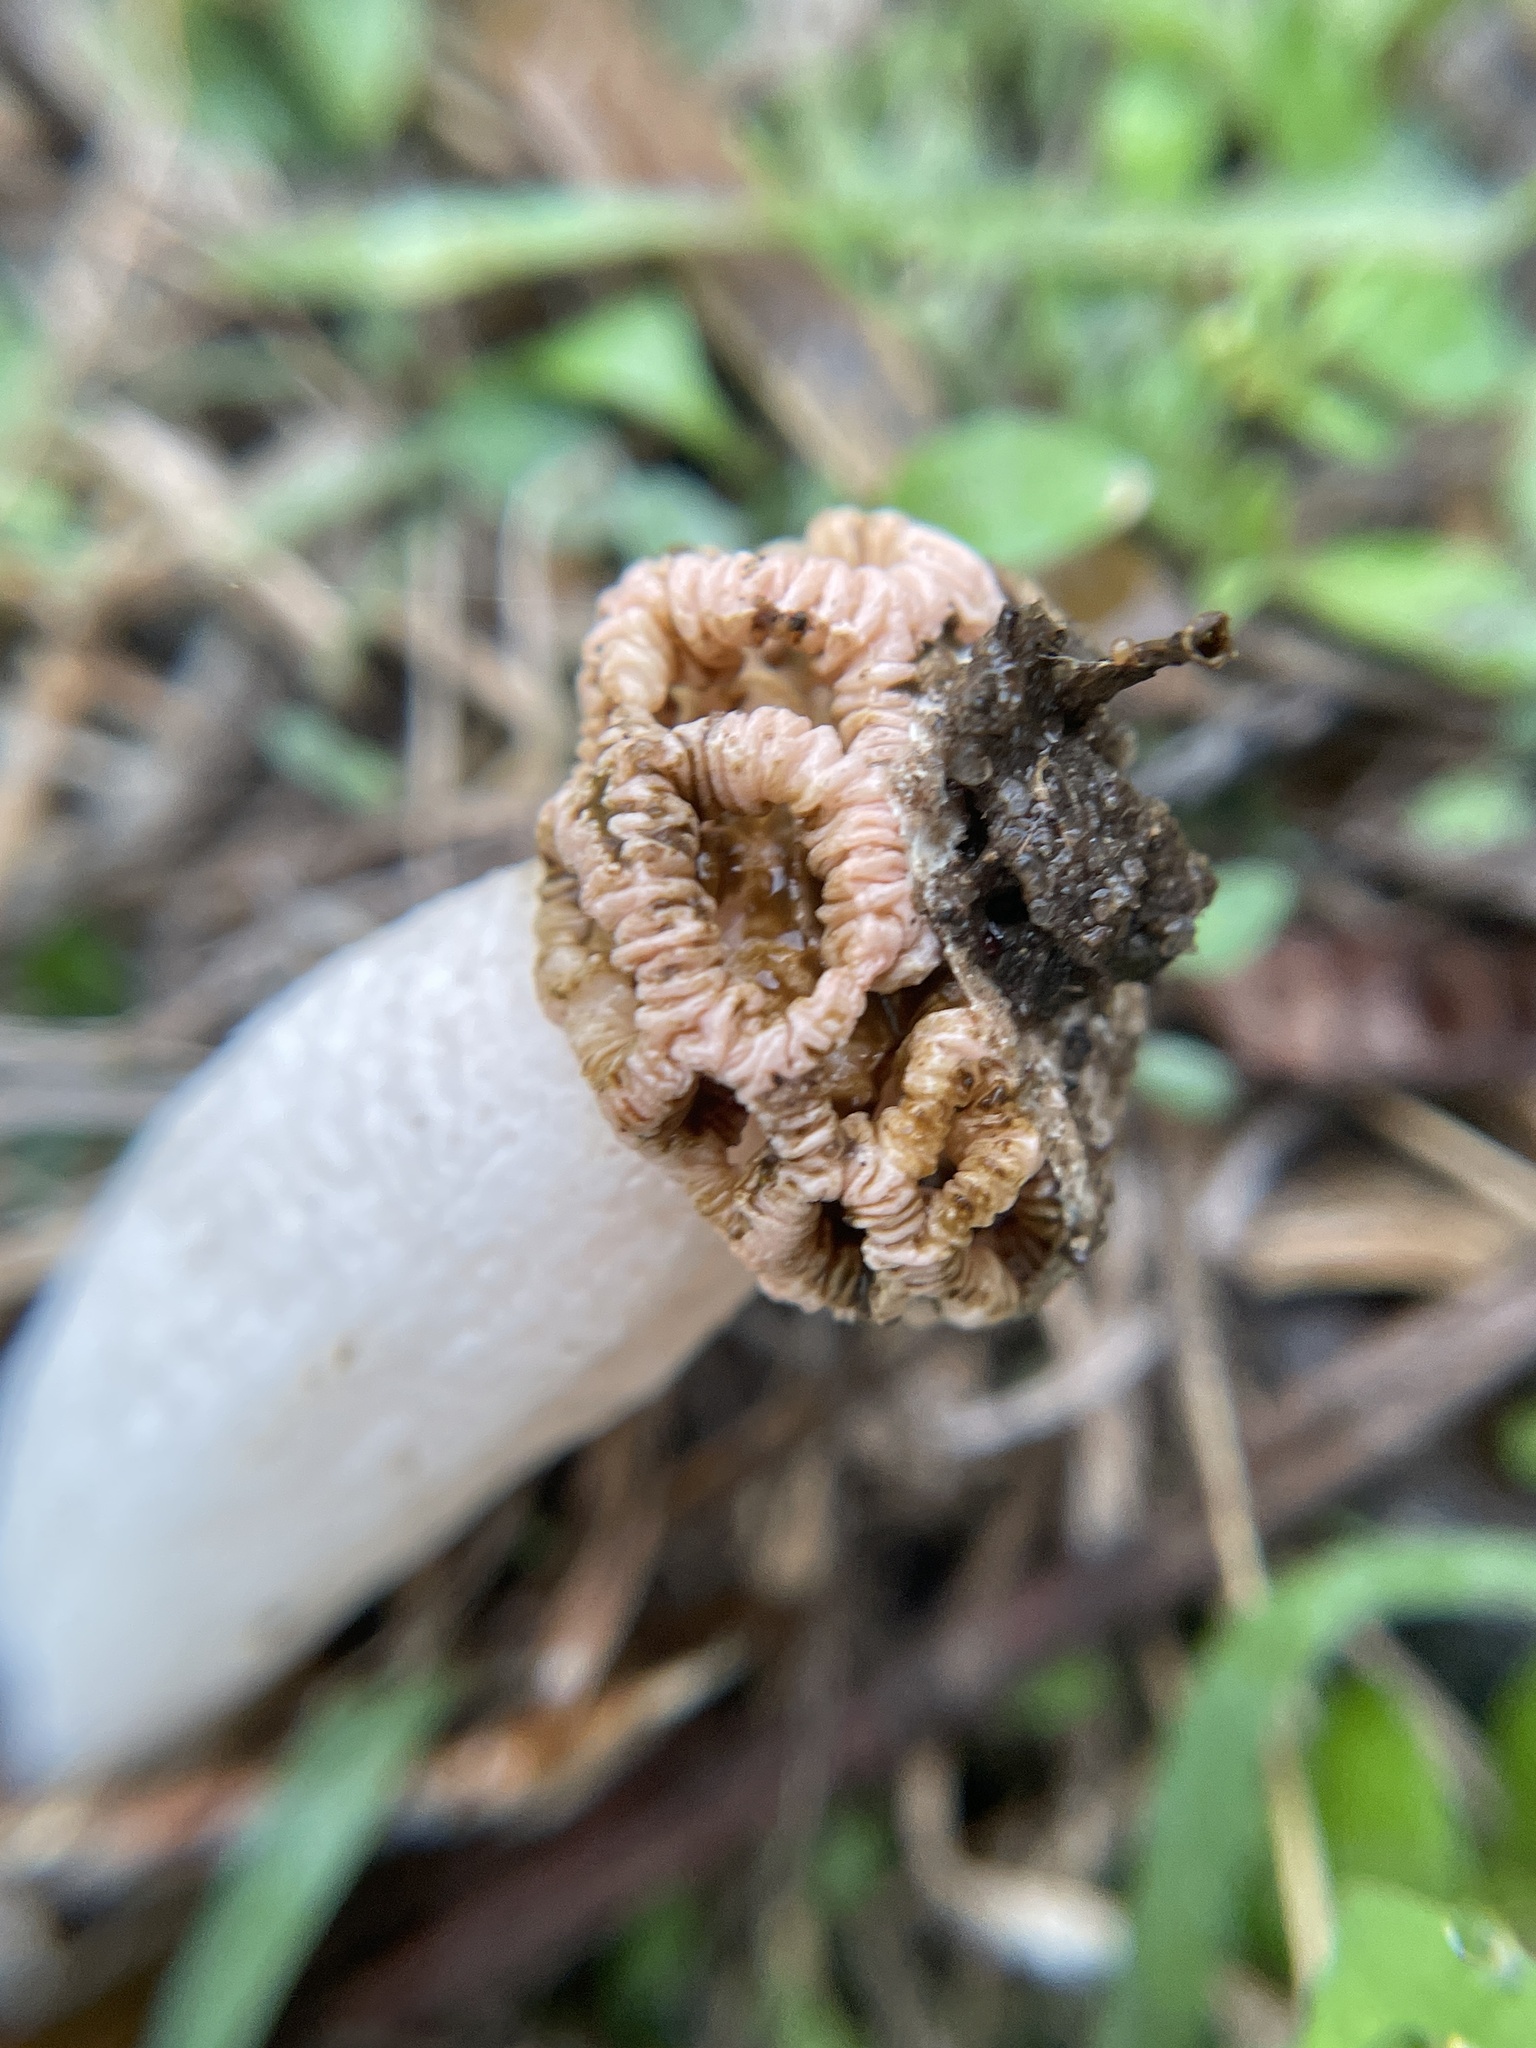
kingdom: Fungi
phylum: Basidiomycota
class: Agaricomycetes
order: Phallales
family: Phallaceae
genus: Lysurus
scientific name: Lysurus periphragmoides
